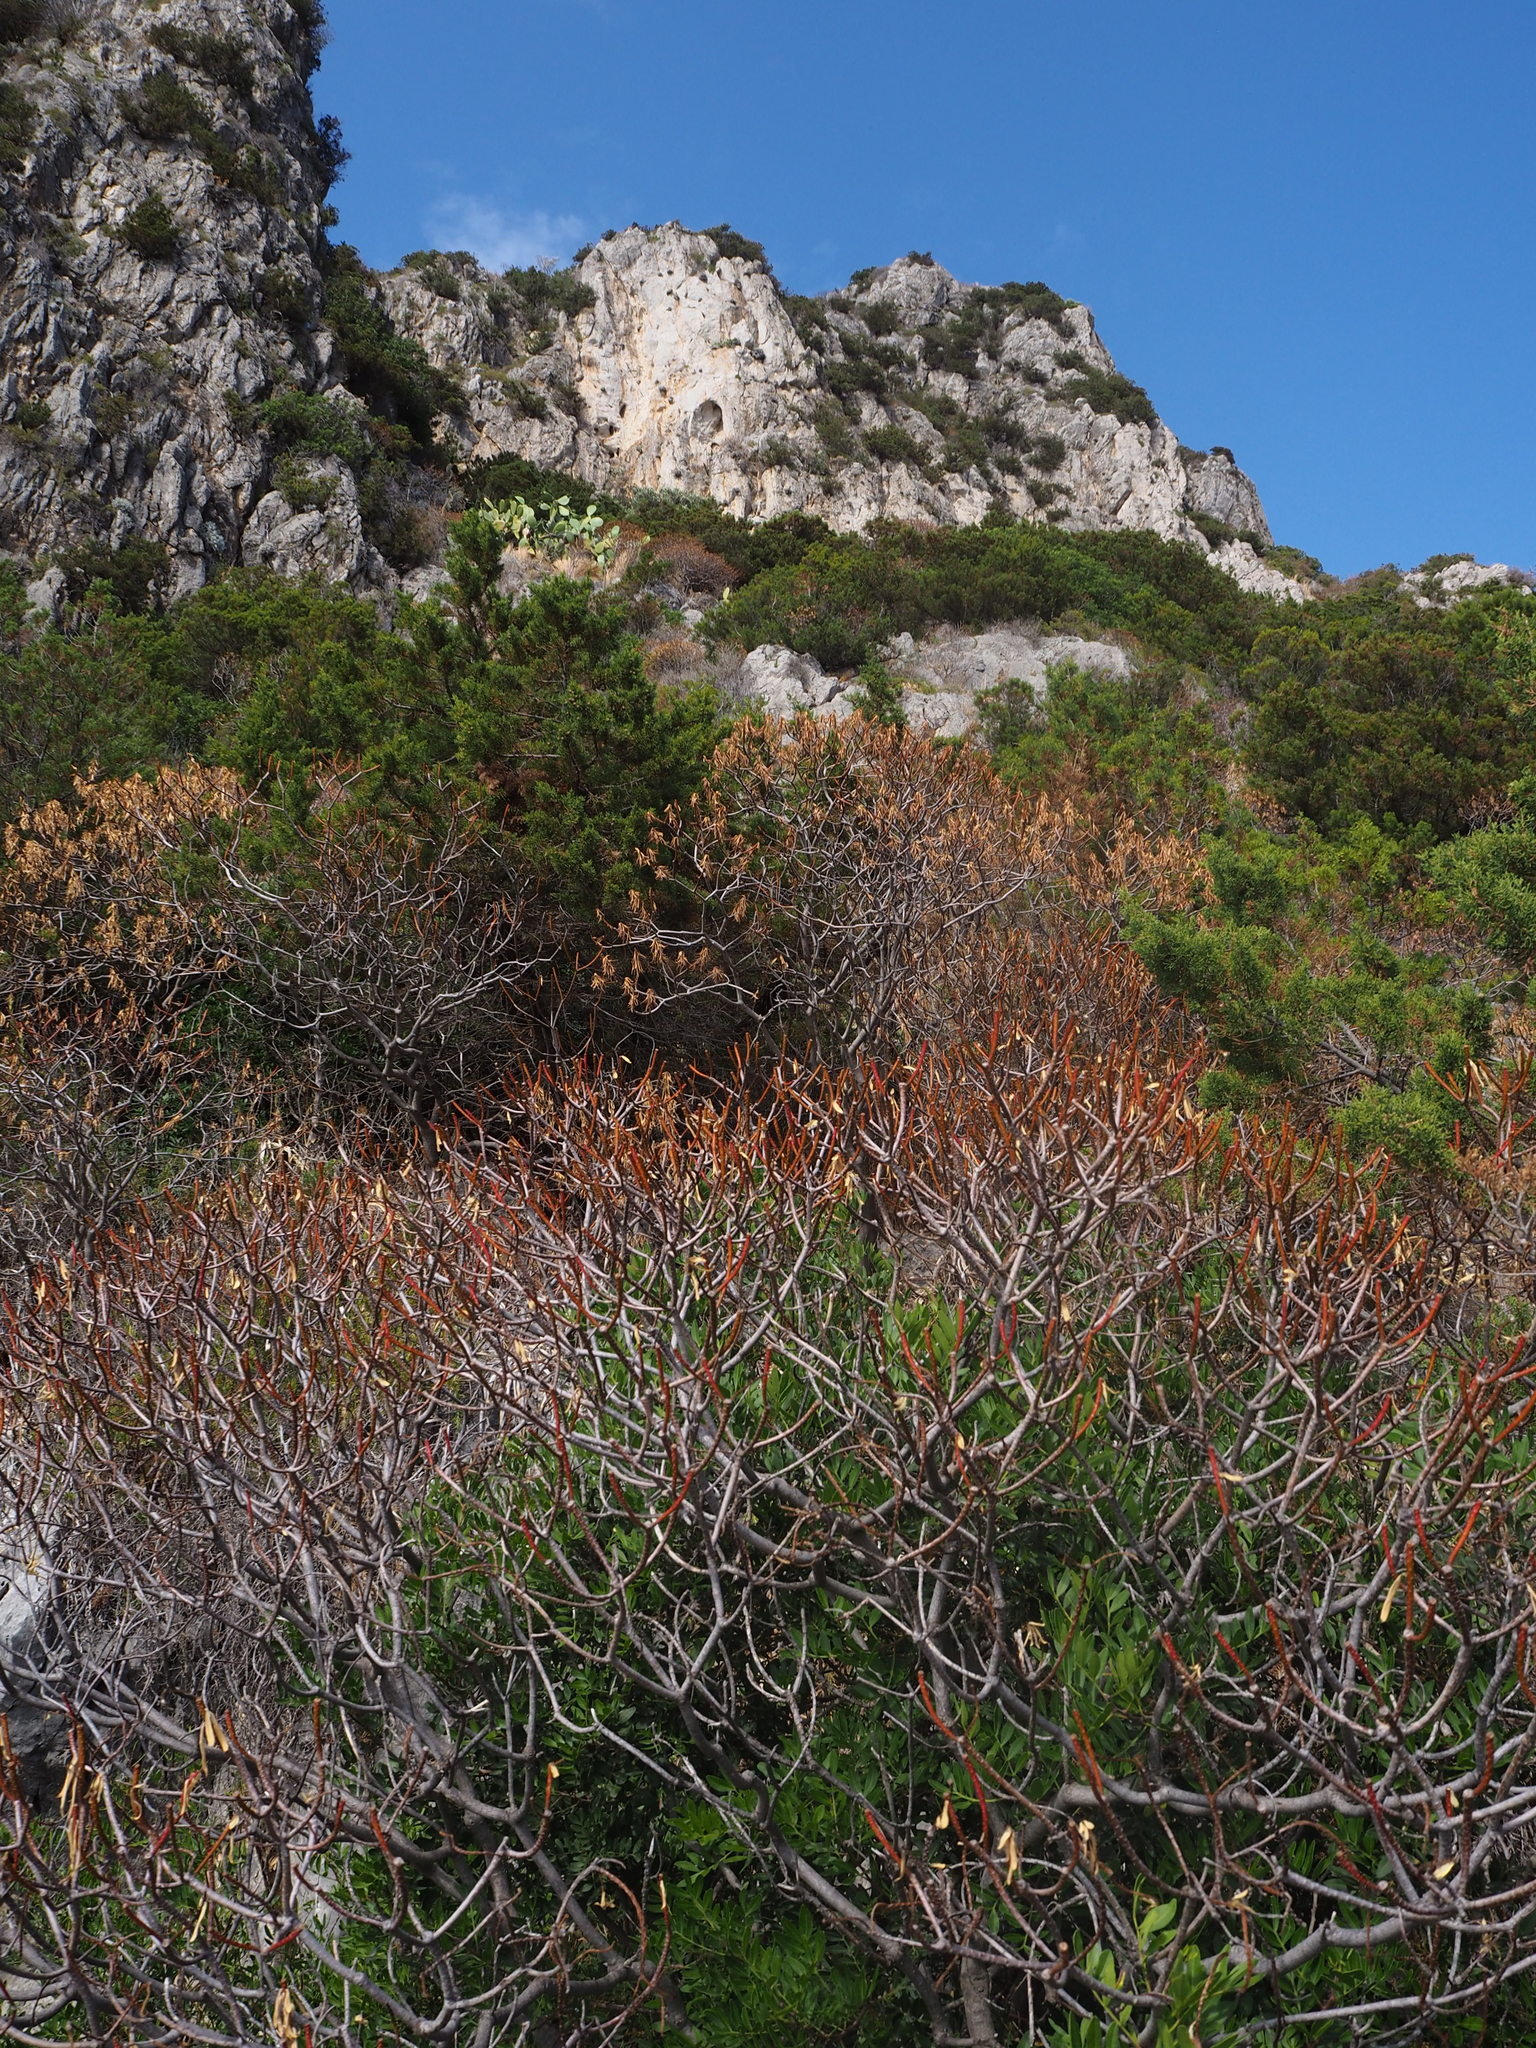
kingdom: Plantae
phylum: Tracheophyta
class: Magnoliopsida
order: Malpighiales
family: Euphorbiaceae
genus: Euphorbia
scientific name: Euphorbia dendroides
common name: Tree spurge
